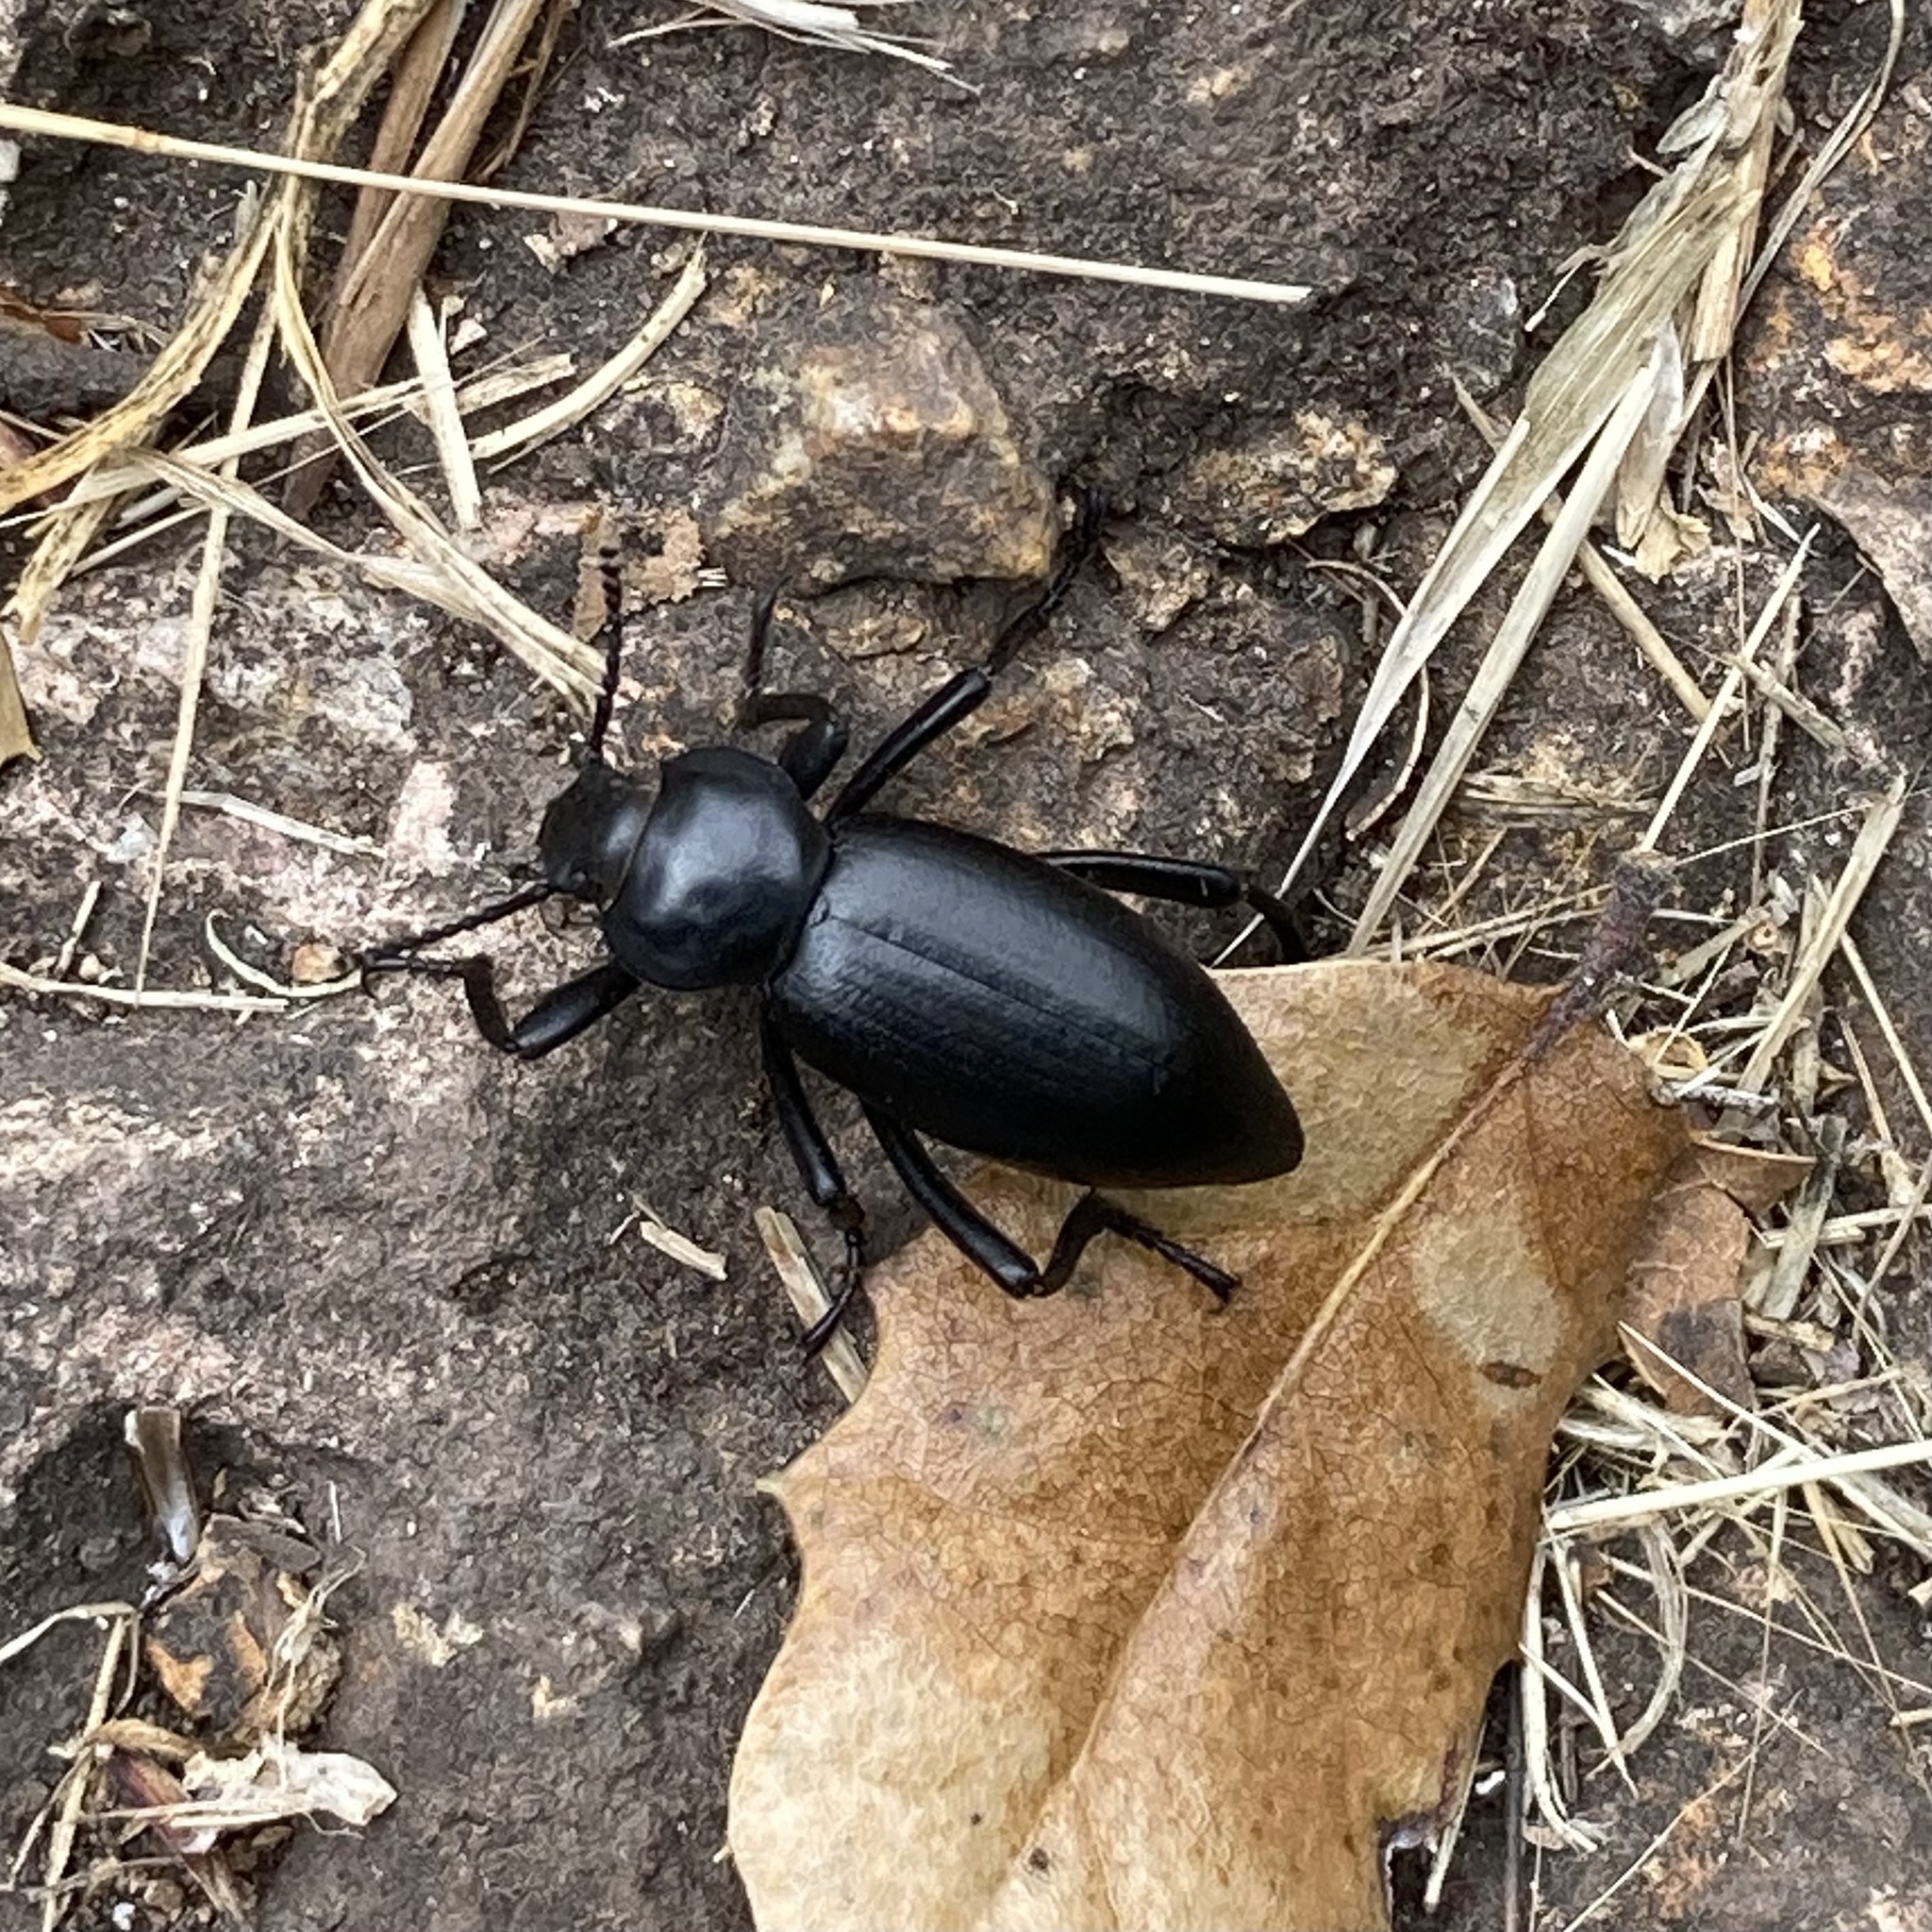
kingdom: Animalia
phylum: Arthropoda
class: Insecta
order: Coleoptera
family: Tenebrionidae
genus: Eleodes
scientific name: Eleodes acuticauda
